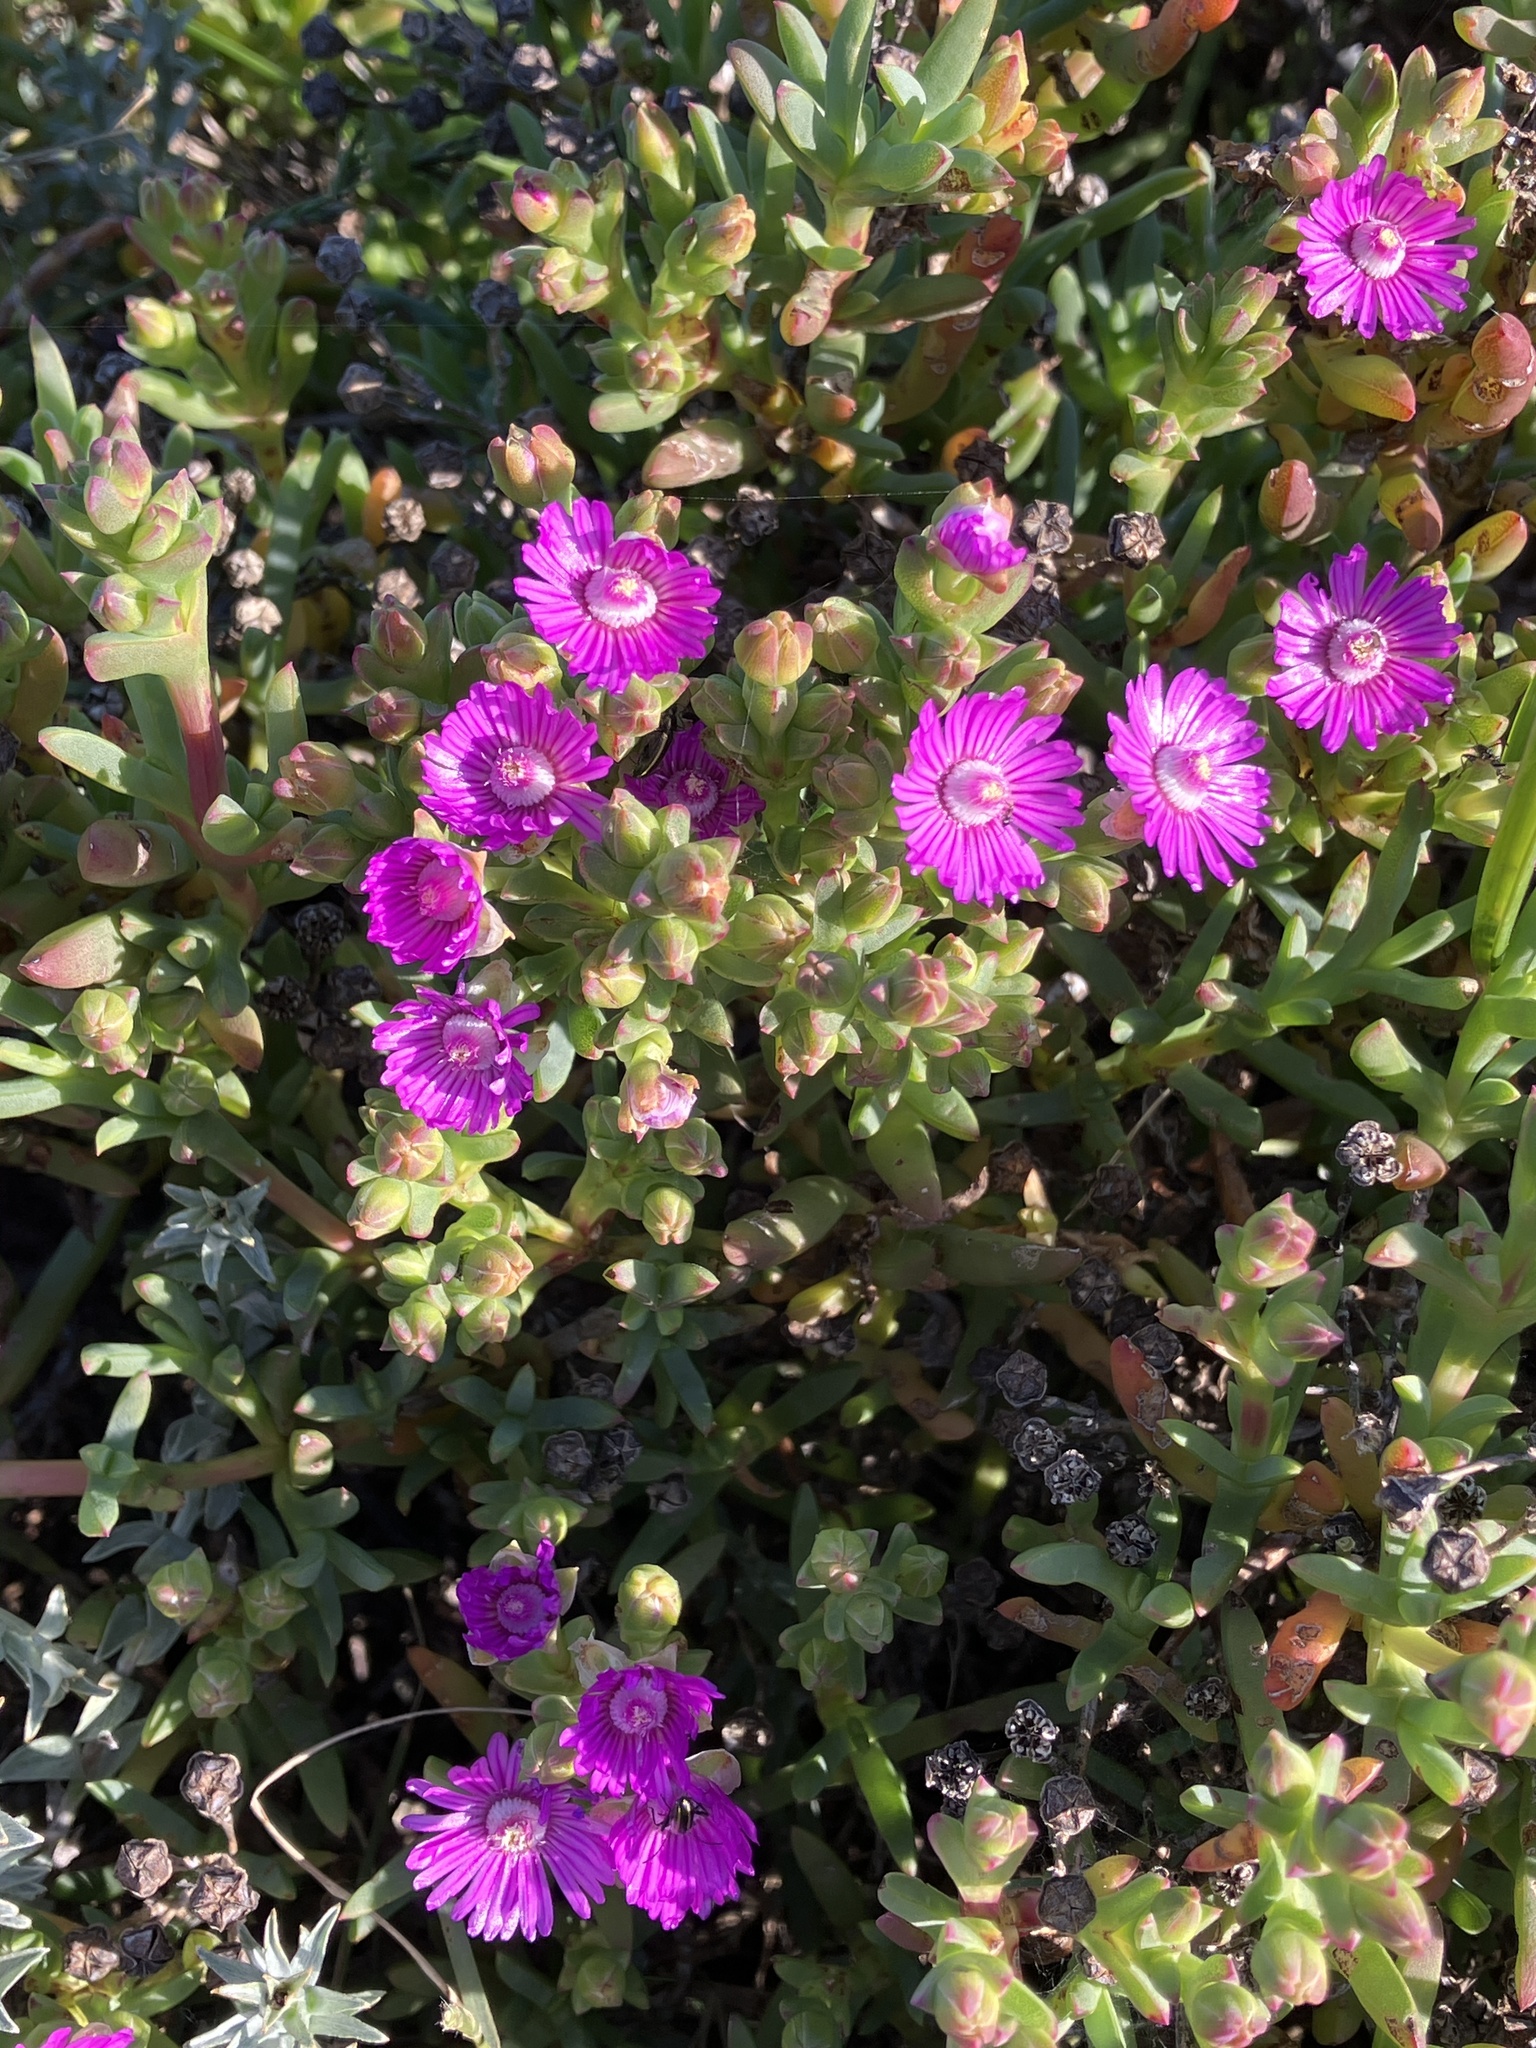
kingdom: Plantae
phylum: Tracheophyta
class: Magnoliopsida
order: Caryophyllales
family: Aizoaceae
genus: Ruschia
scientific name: Ruschia macowanii
